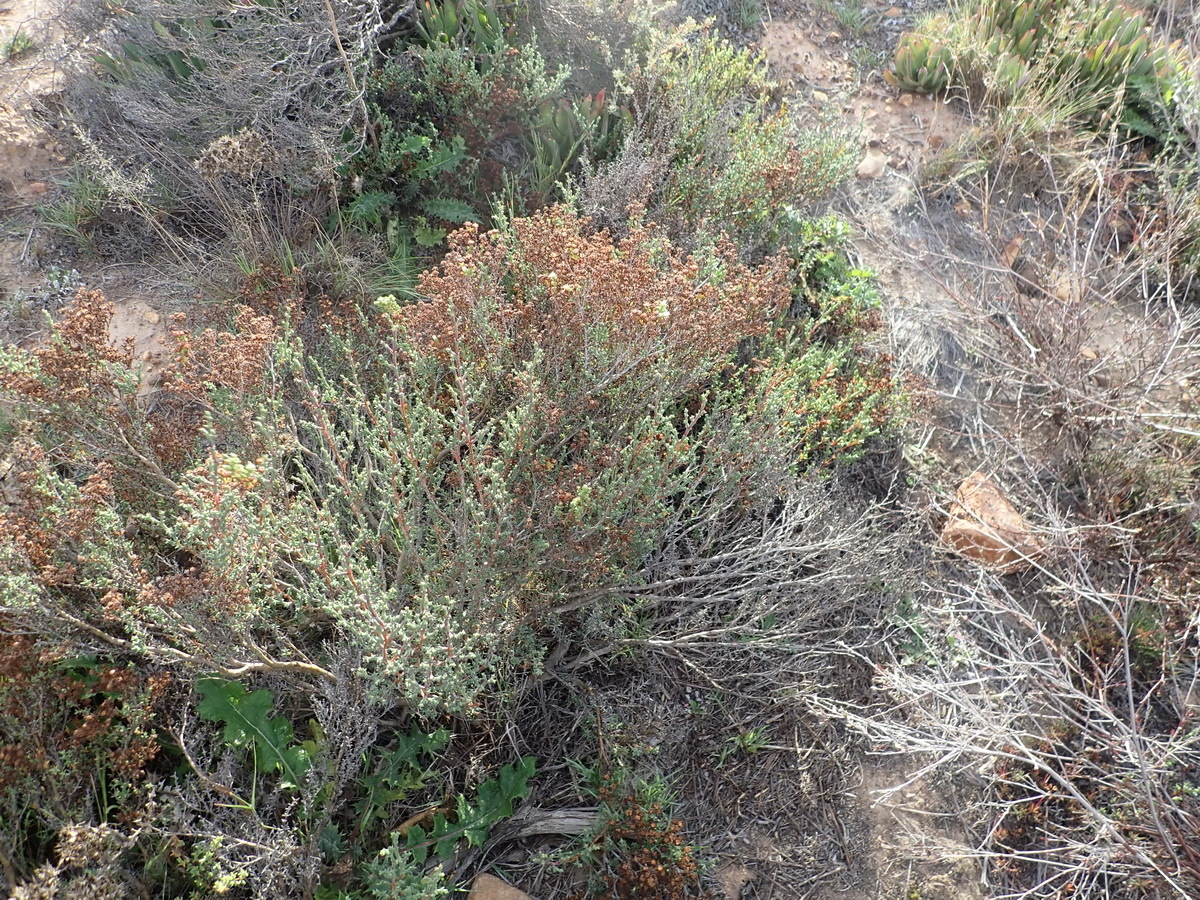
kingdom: Plantae
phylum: Tracheophyta
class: Magnoliopsida
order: Caryophyllales
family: Aizoaceae
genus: Ruschia
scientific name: Ruschia tenella
